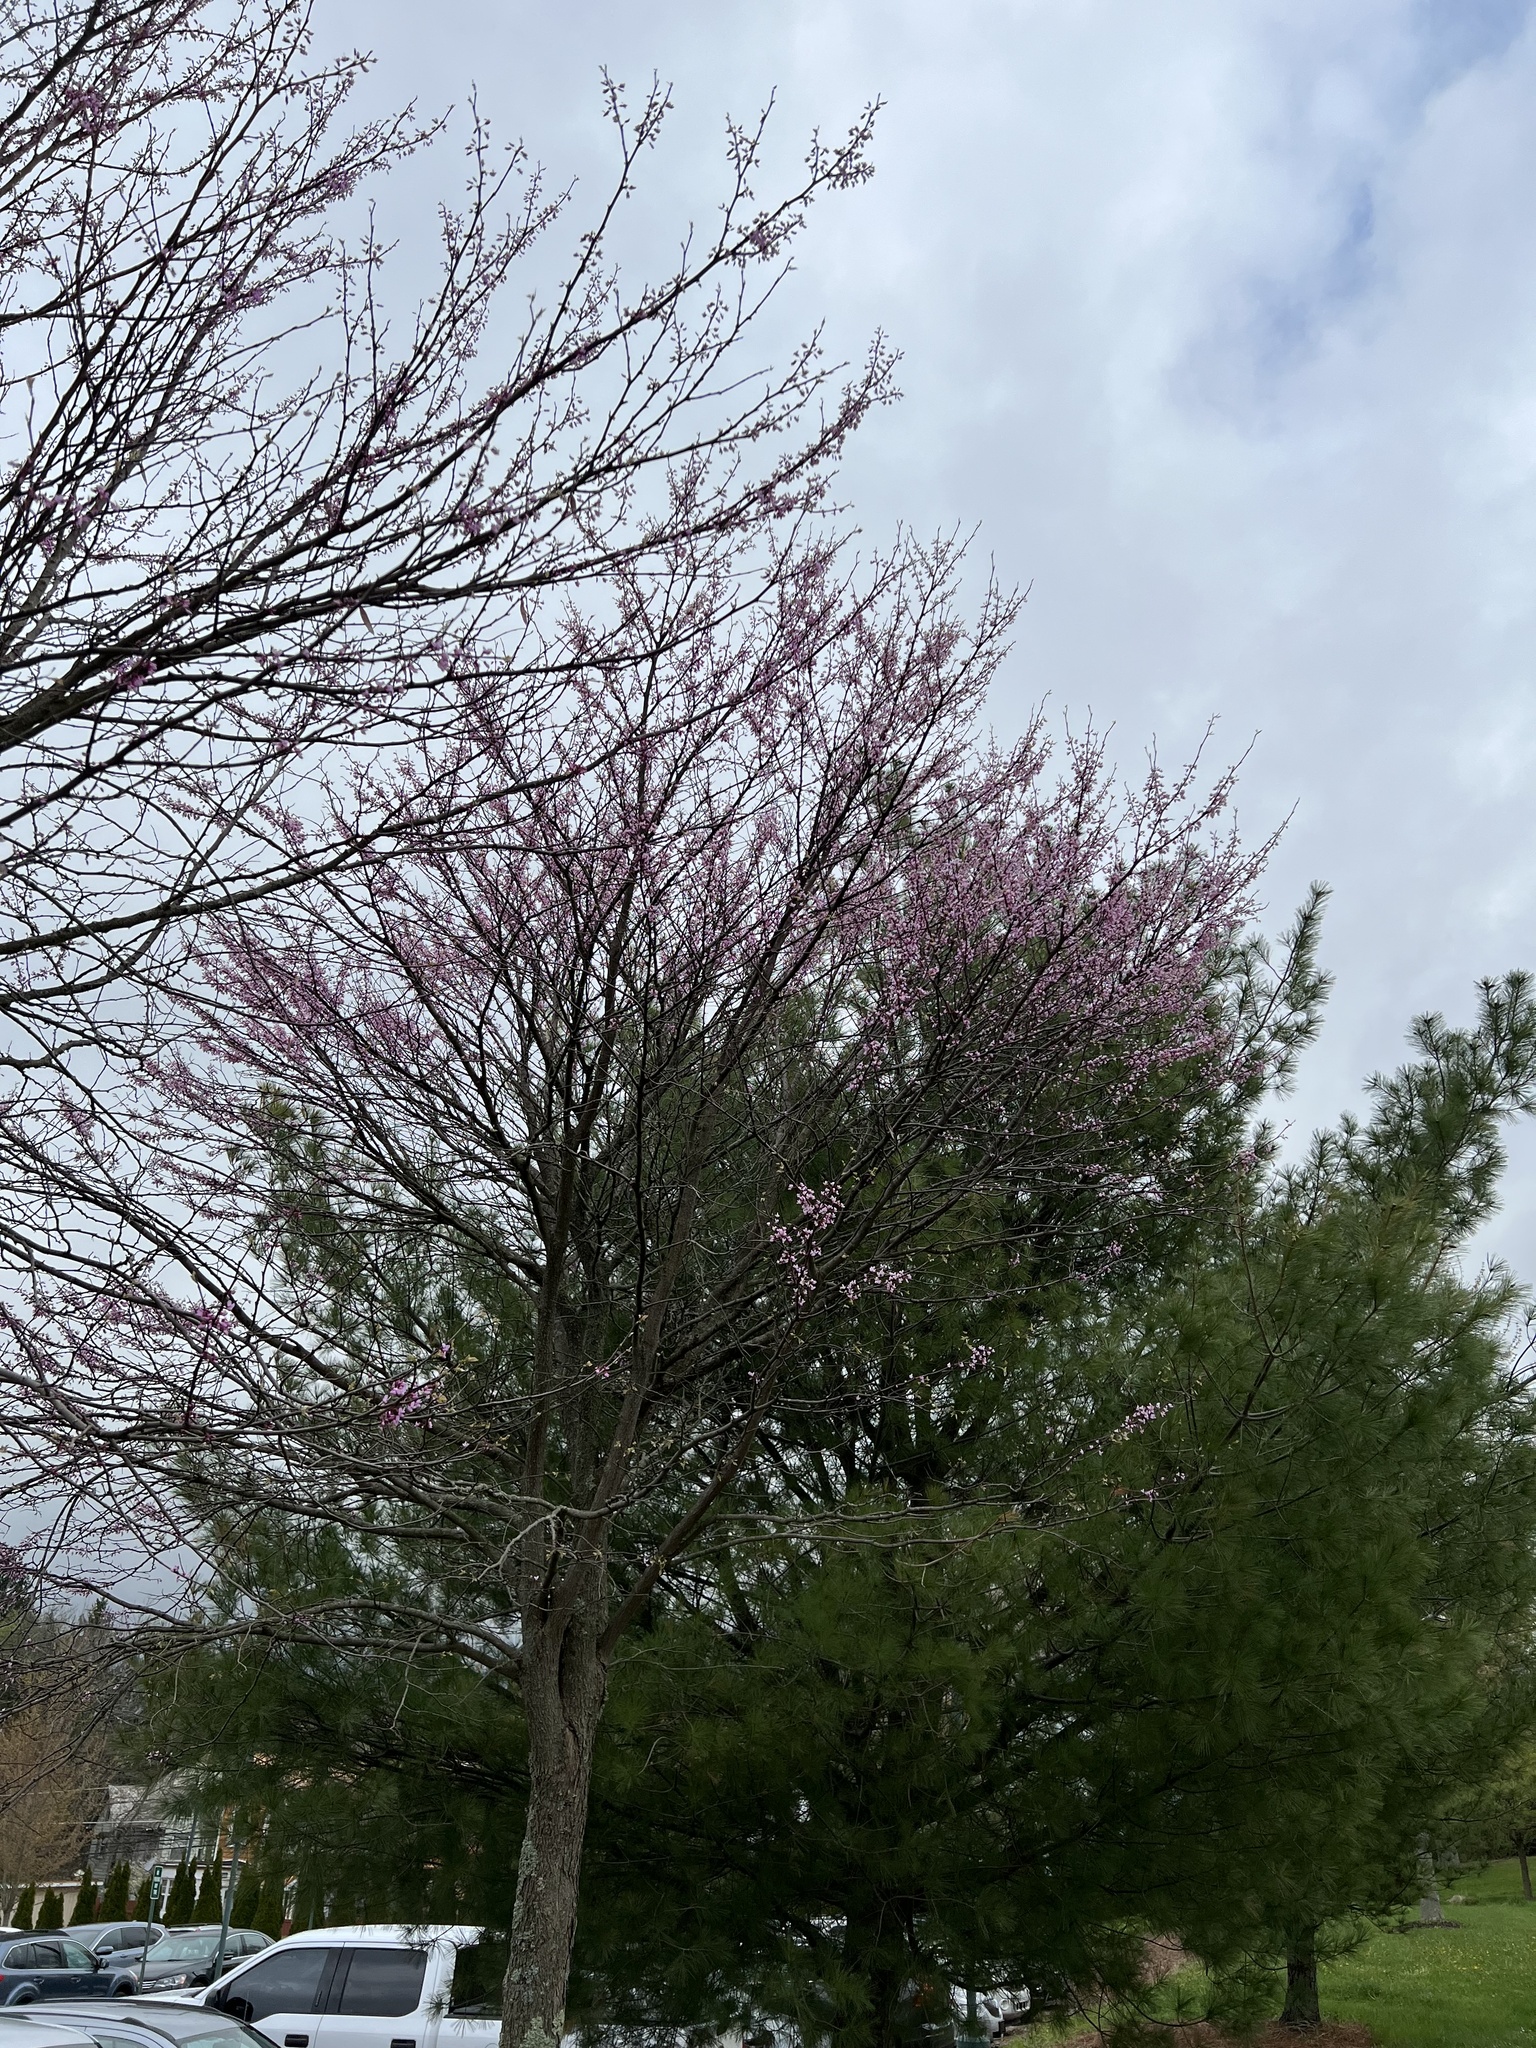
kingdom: Plantae
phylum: Tracheophyta
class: Magnoliopsida
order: Fabales
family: Fabaceae
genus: Cercis
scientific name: Cercis canadensis
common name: Eastern redbud
